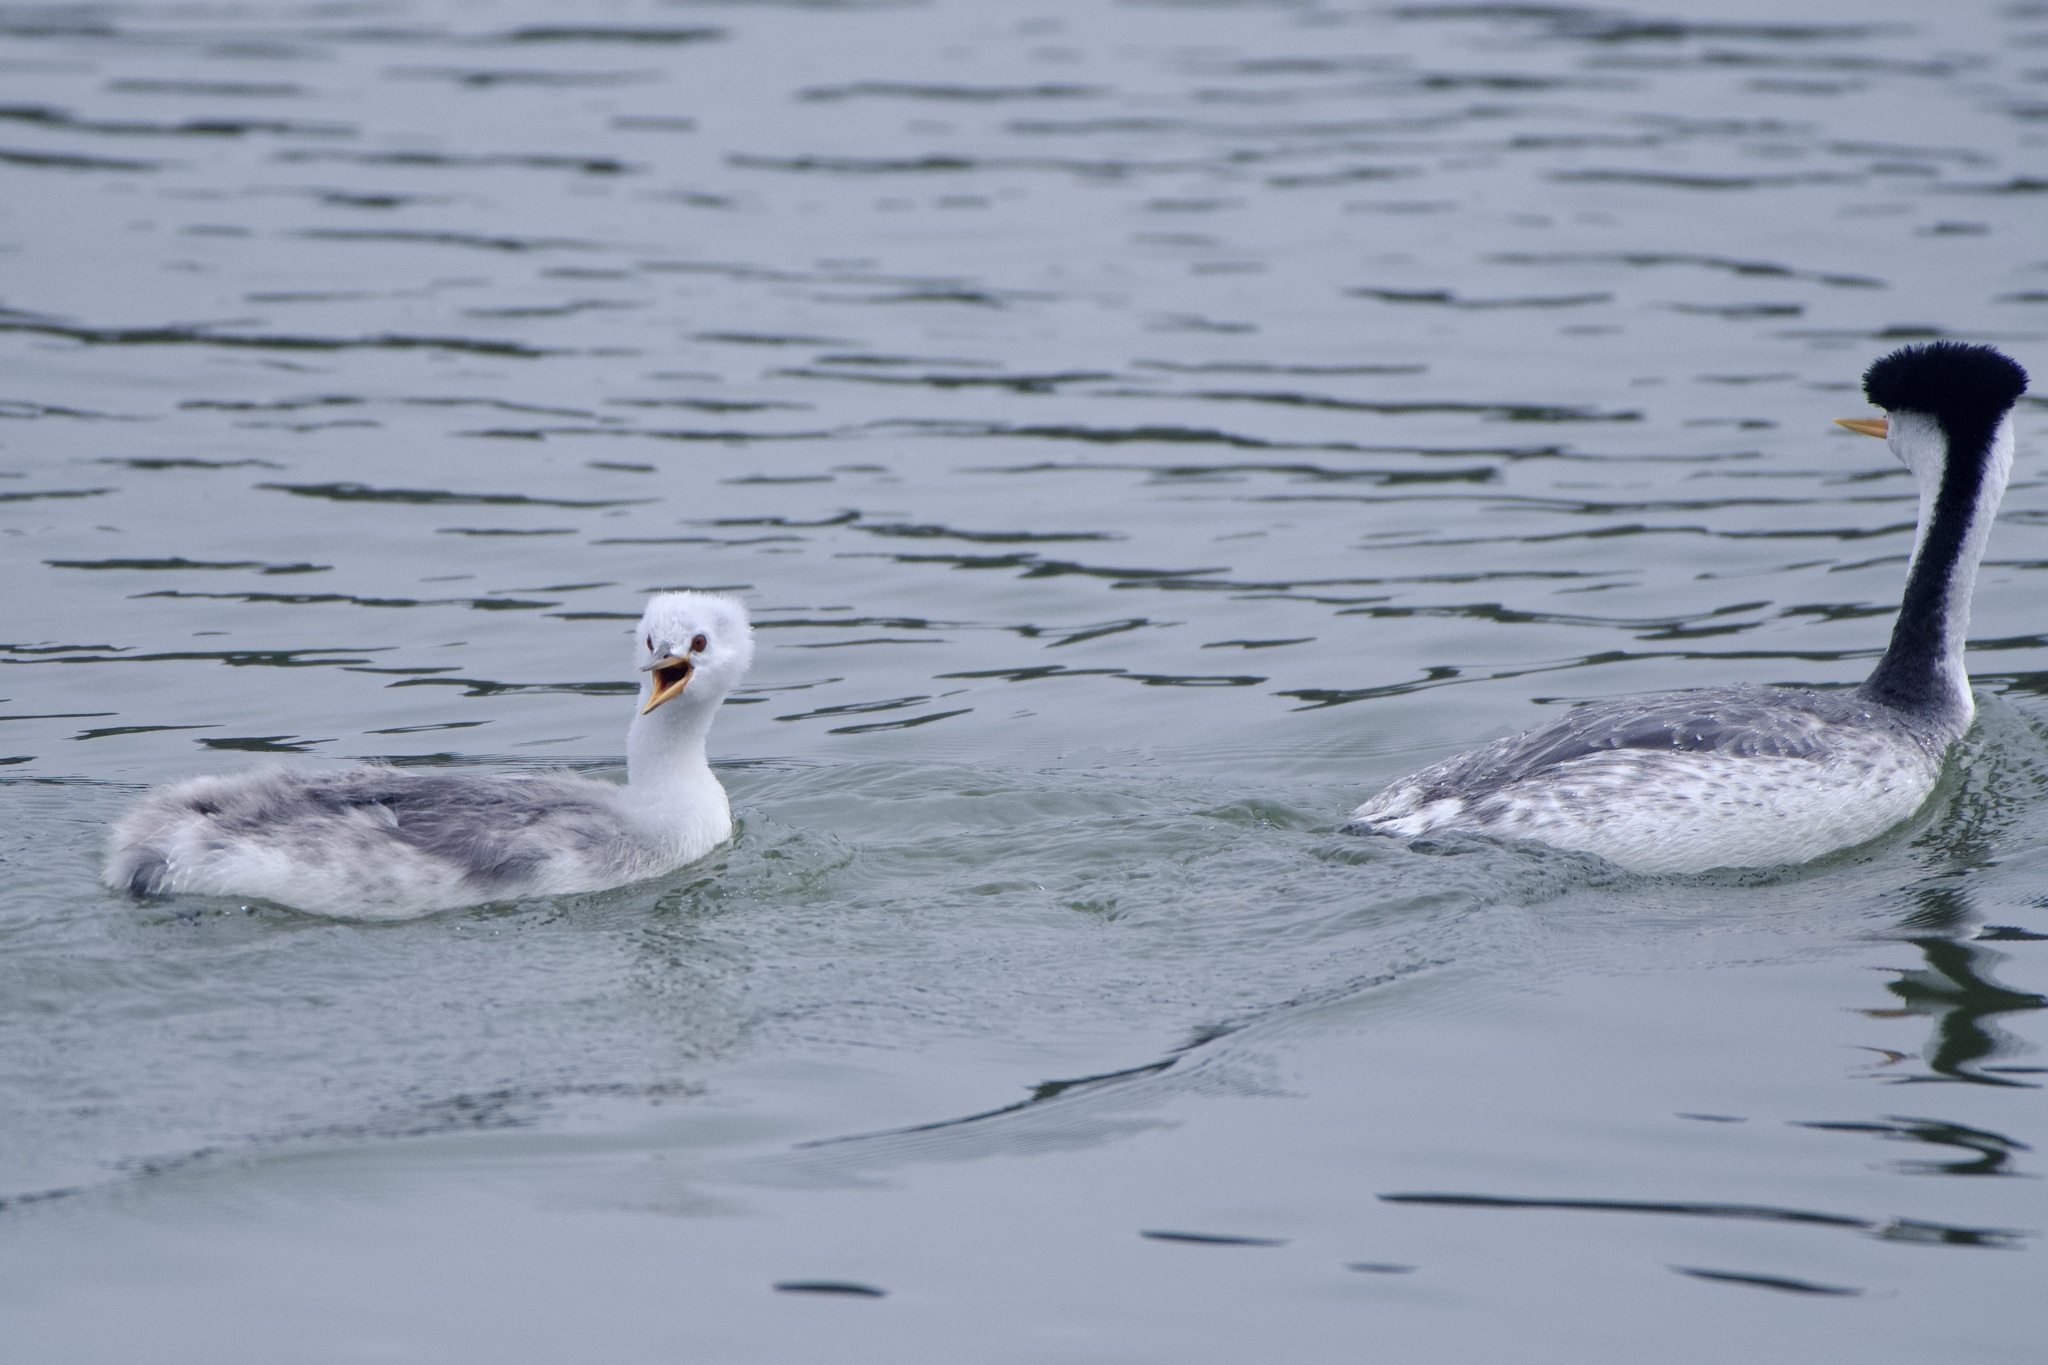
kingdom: Animalia
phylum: Chordata
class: Aves
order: Podicipediformes
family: Podicipedidae
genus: Aechmophorus
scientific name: Aechmophorus clarkii
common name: Clark's grebe
